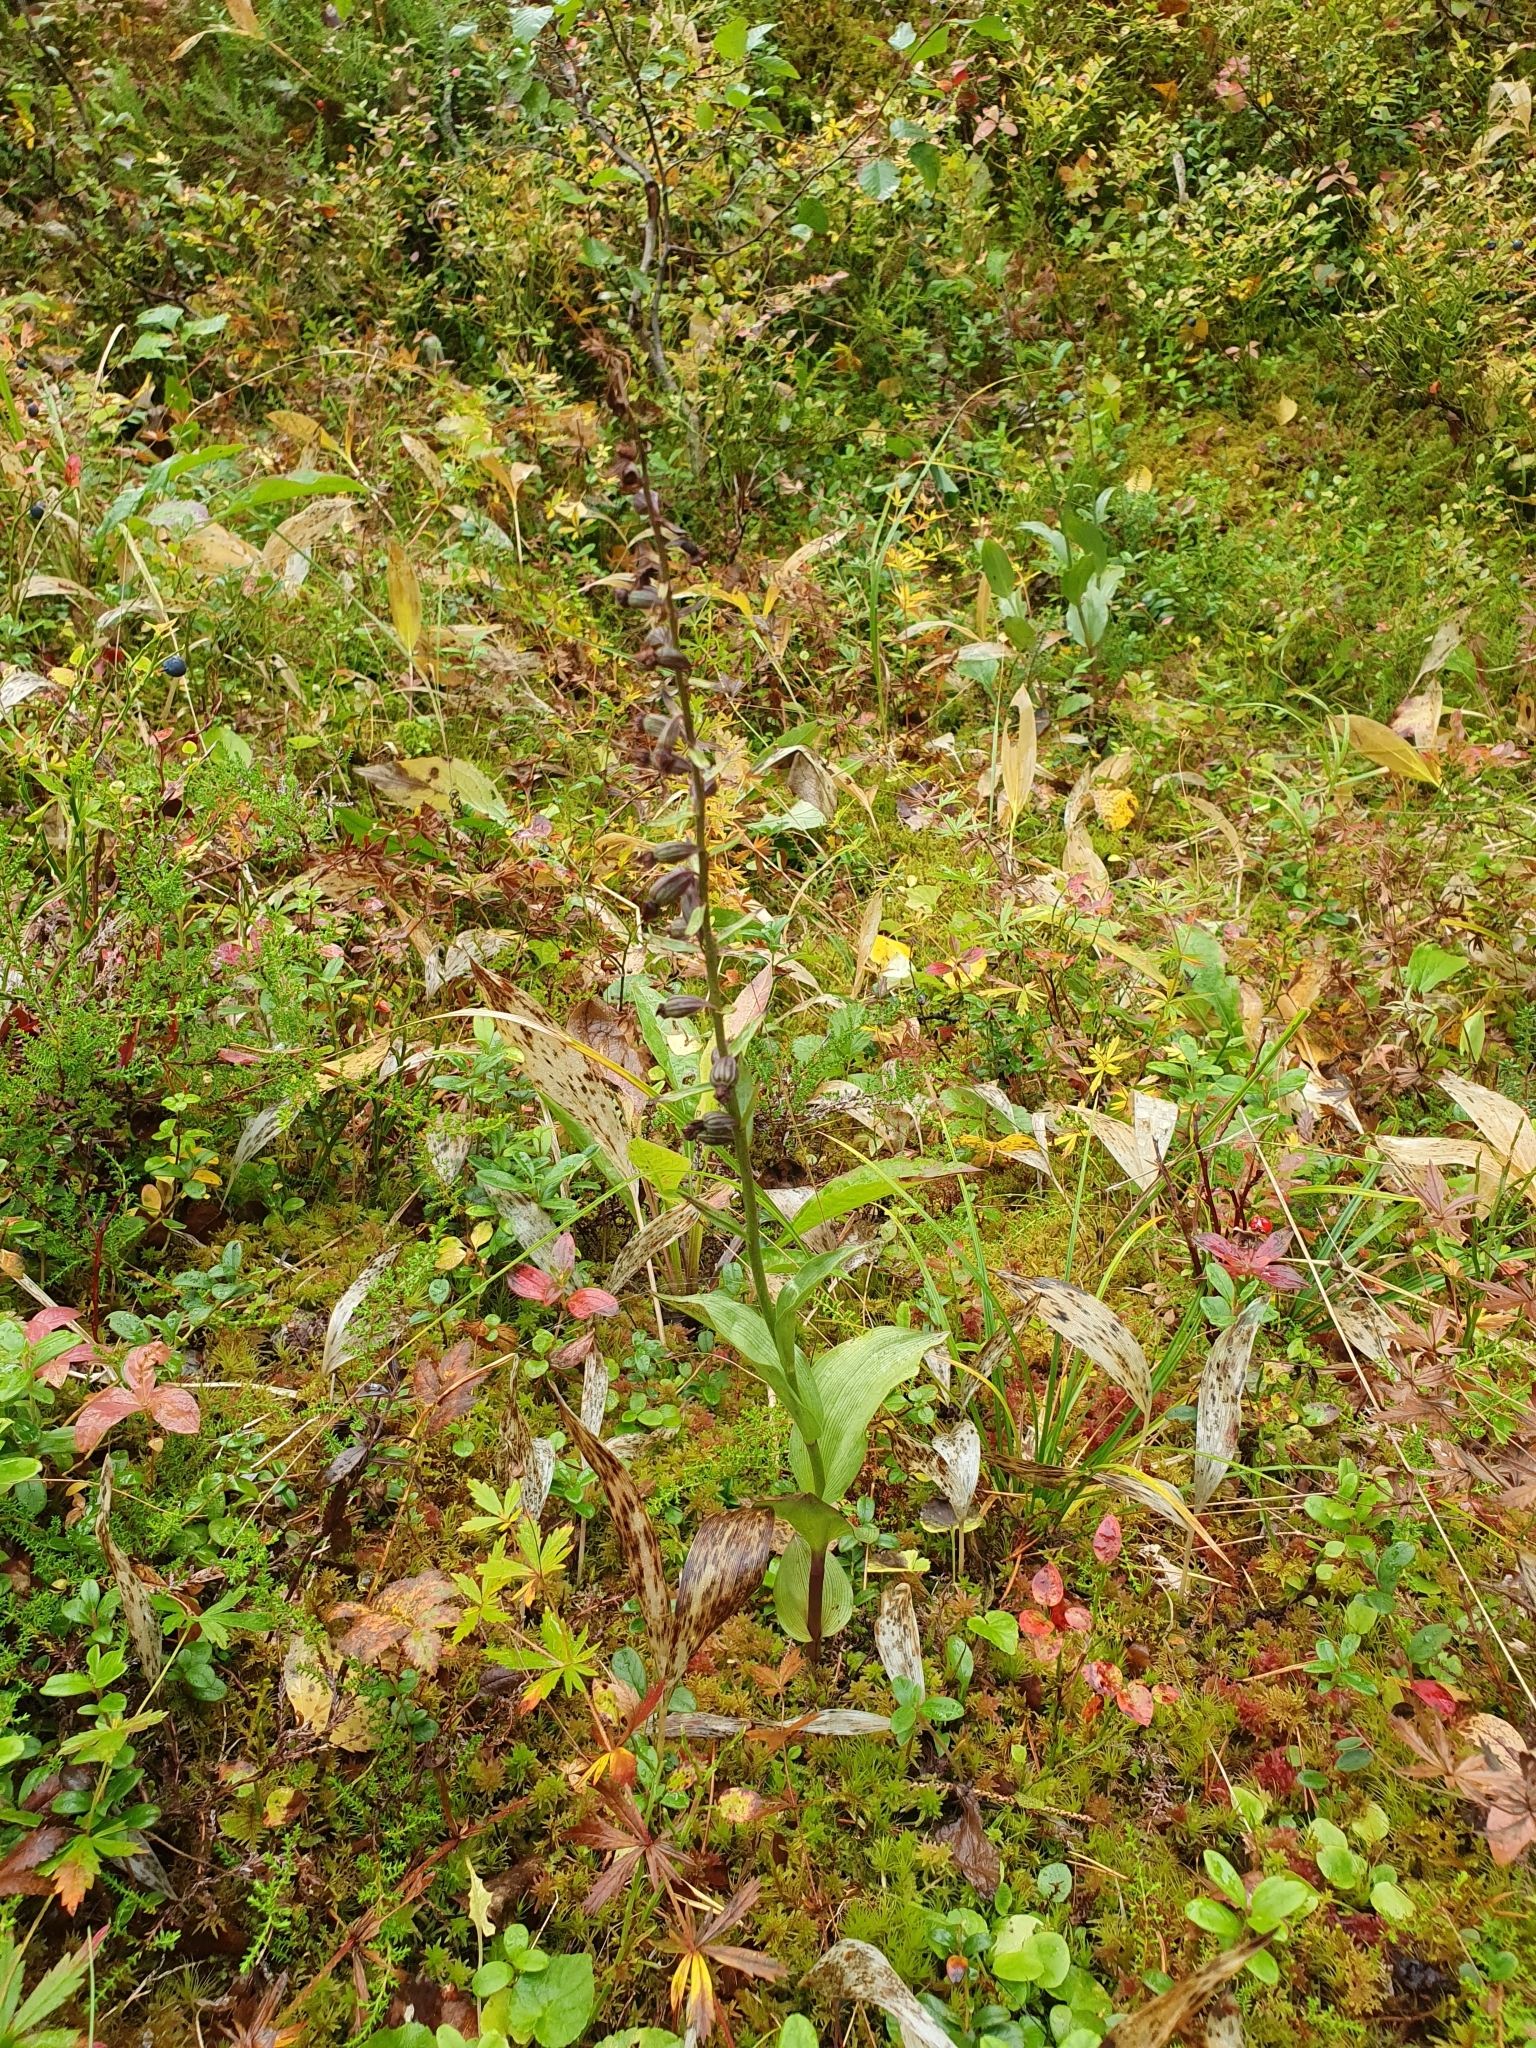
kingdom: Plantae
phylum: Tracheophyta
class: Liliopsida
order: Asparagales
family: Orchidaceae
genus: Epipactis
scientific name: Epipactis atrorubens
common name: Dark-red helleborine
